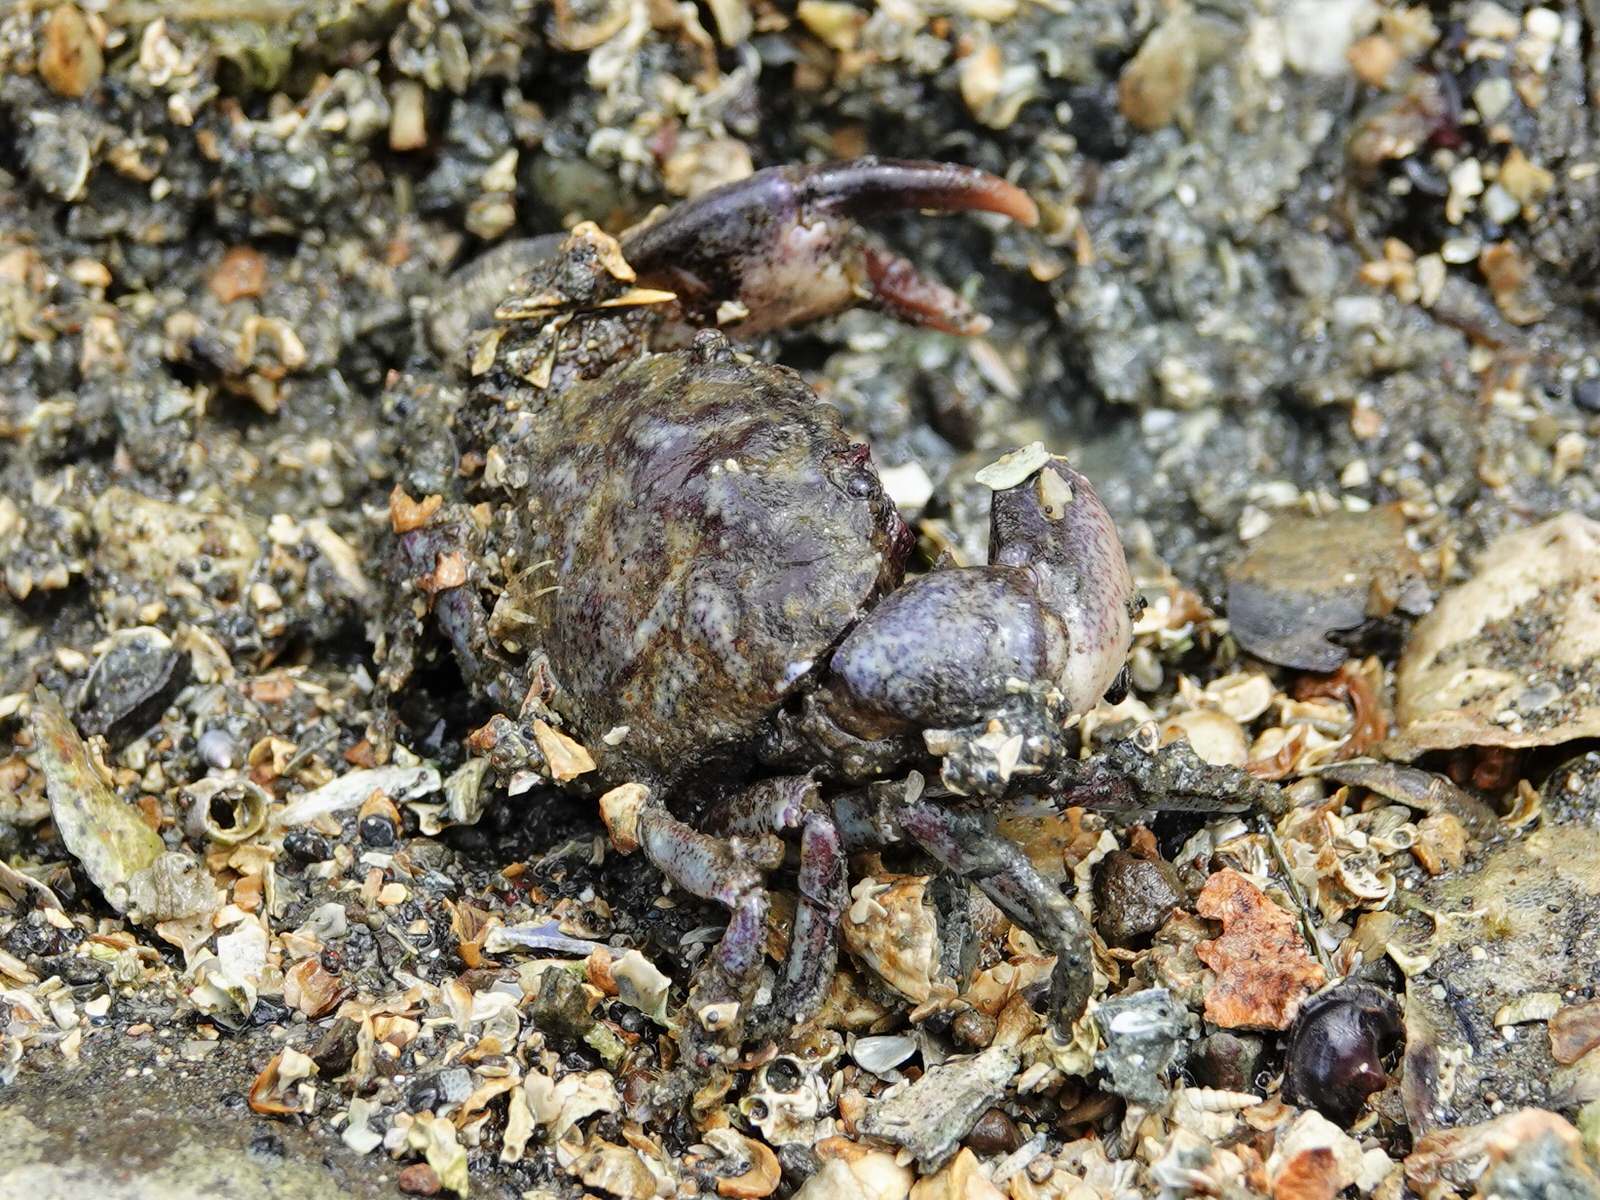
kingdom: Animalia
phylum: Arthropoda
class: Malacostraca
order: Decapoda
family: Pilumnidae
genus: Pilumnopeus
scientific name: Pilumnopeus serratifrons
